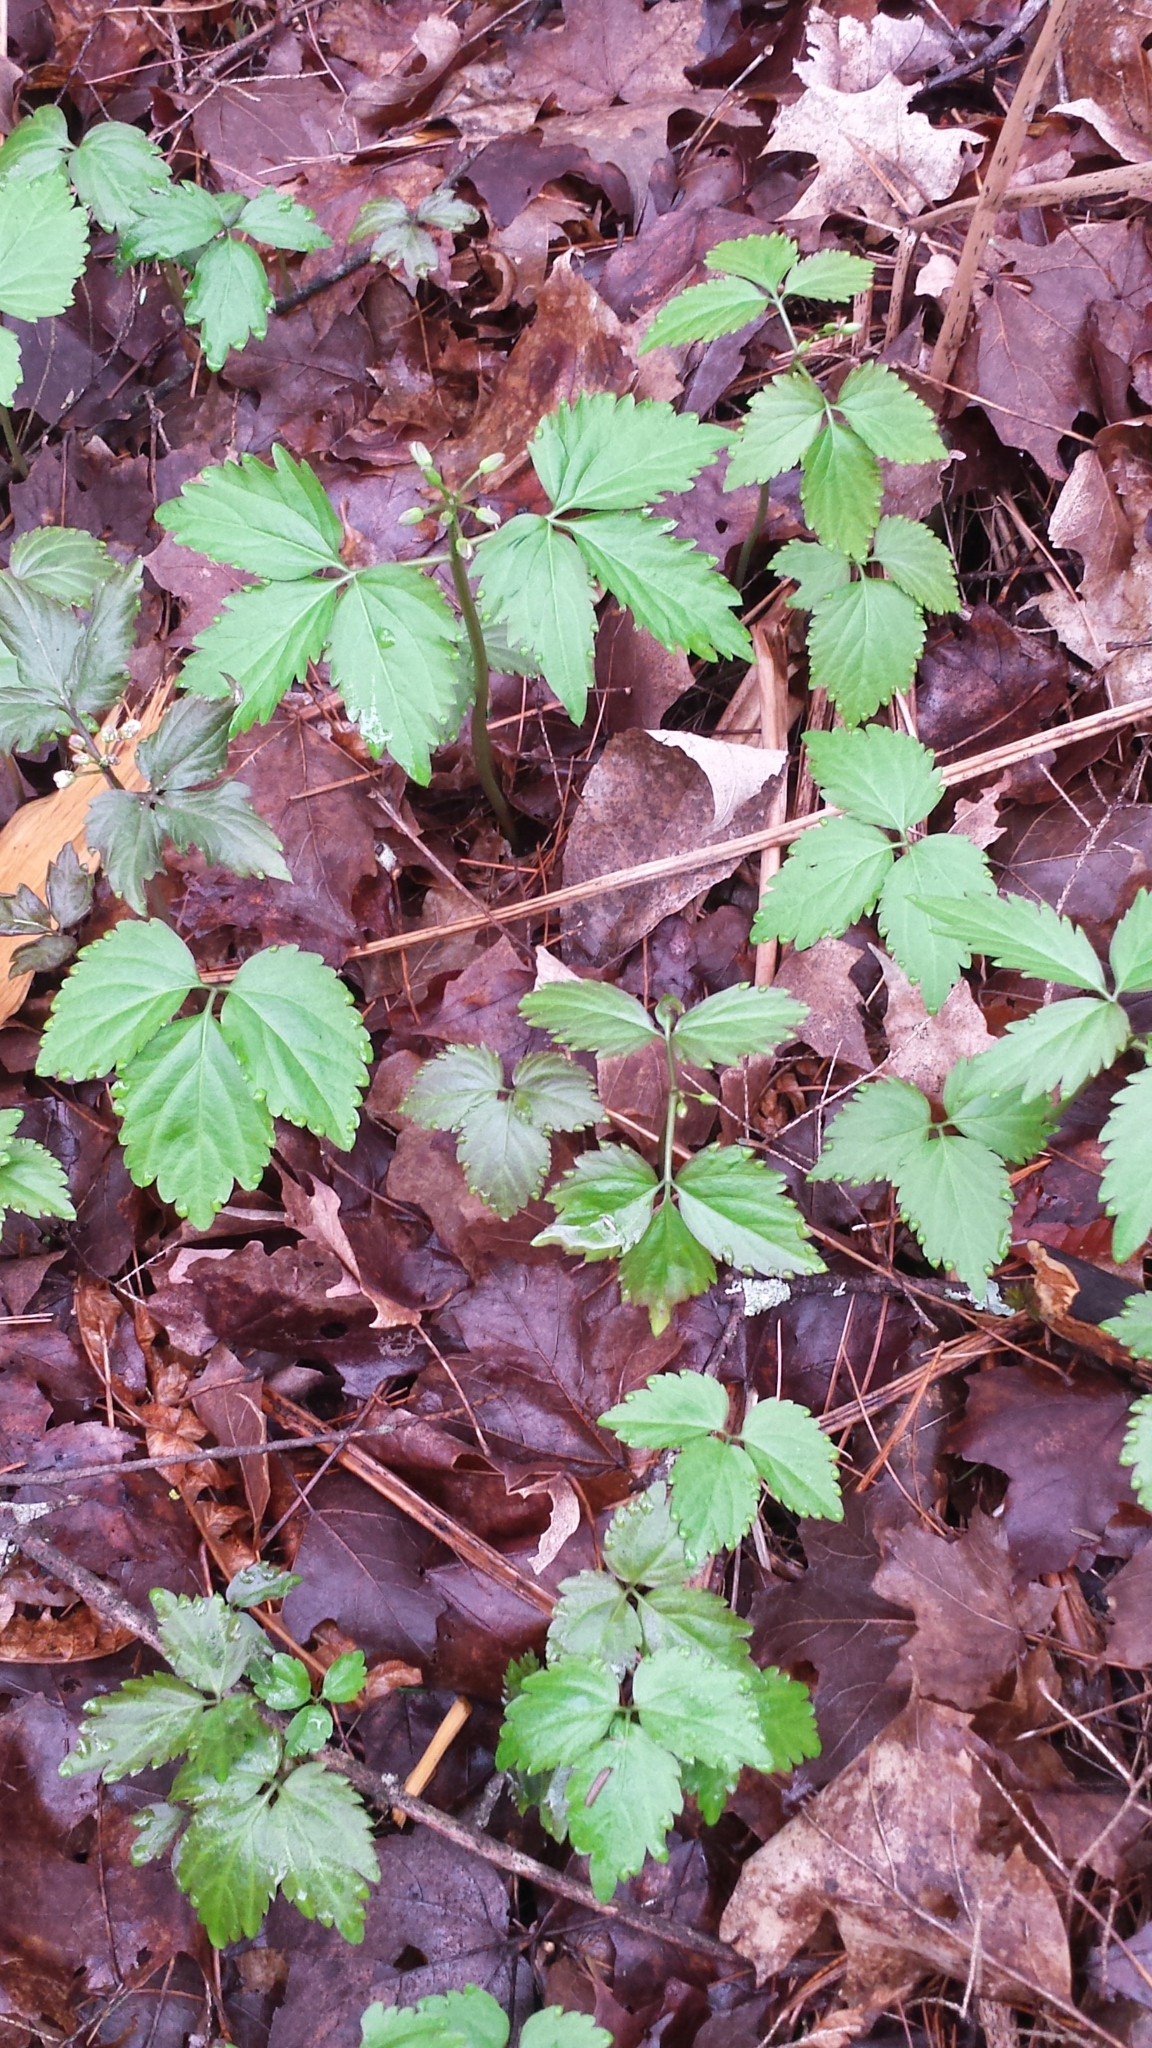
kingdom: Plantae
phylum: Tracheophyta
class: Magnoliopsida
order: Brassicales
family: Brassicaceae
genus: Cardamine
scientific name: Cardamine diphylla
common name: Broad-leaved toothwort
